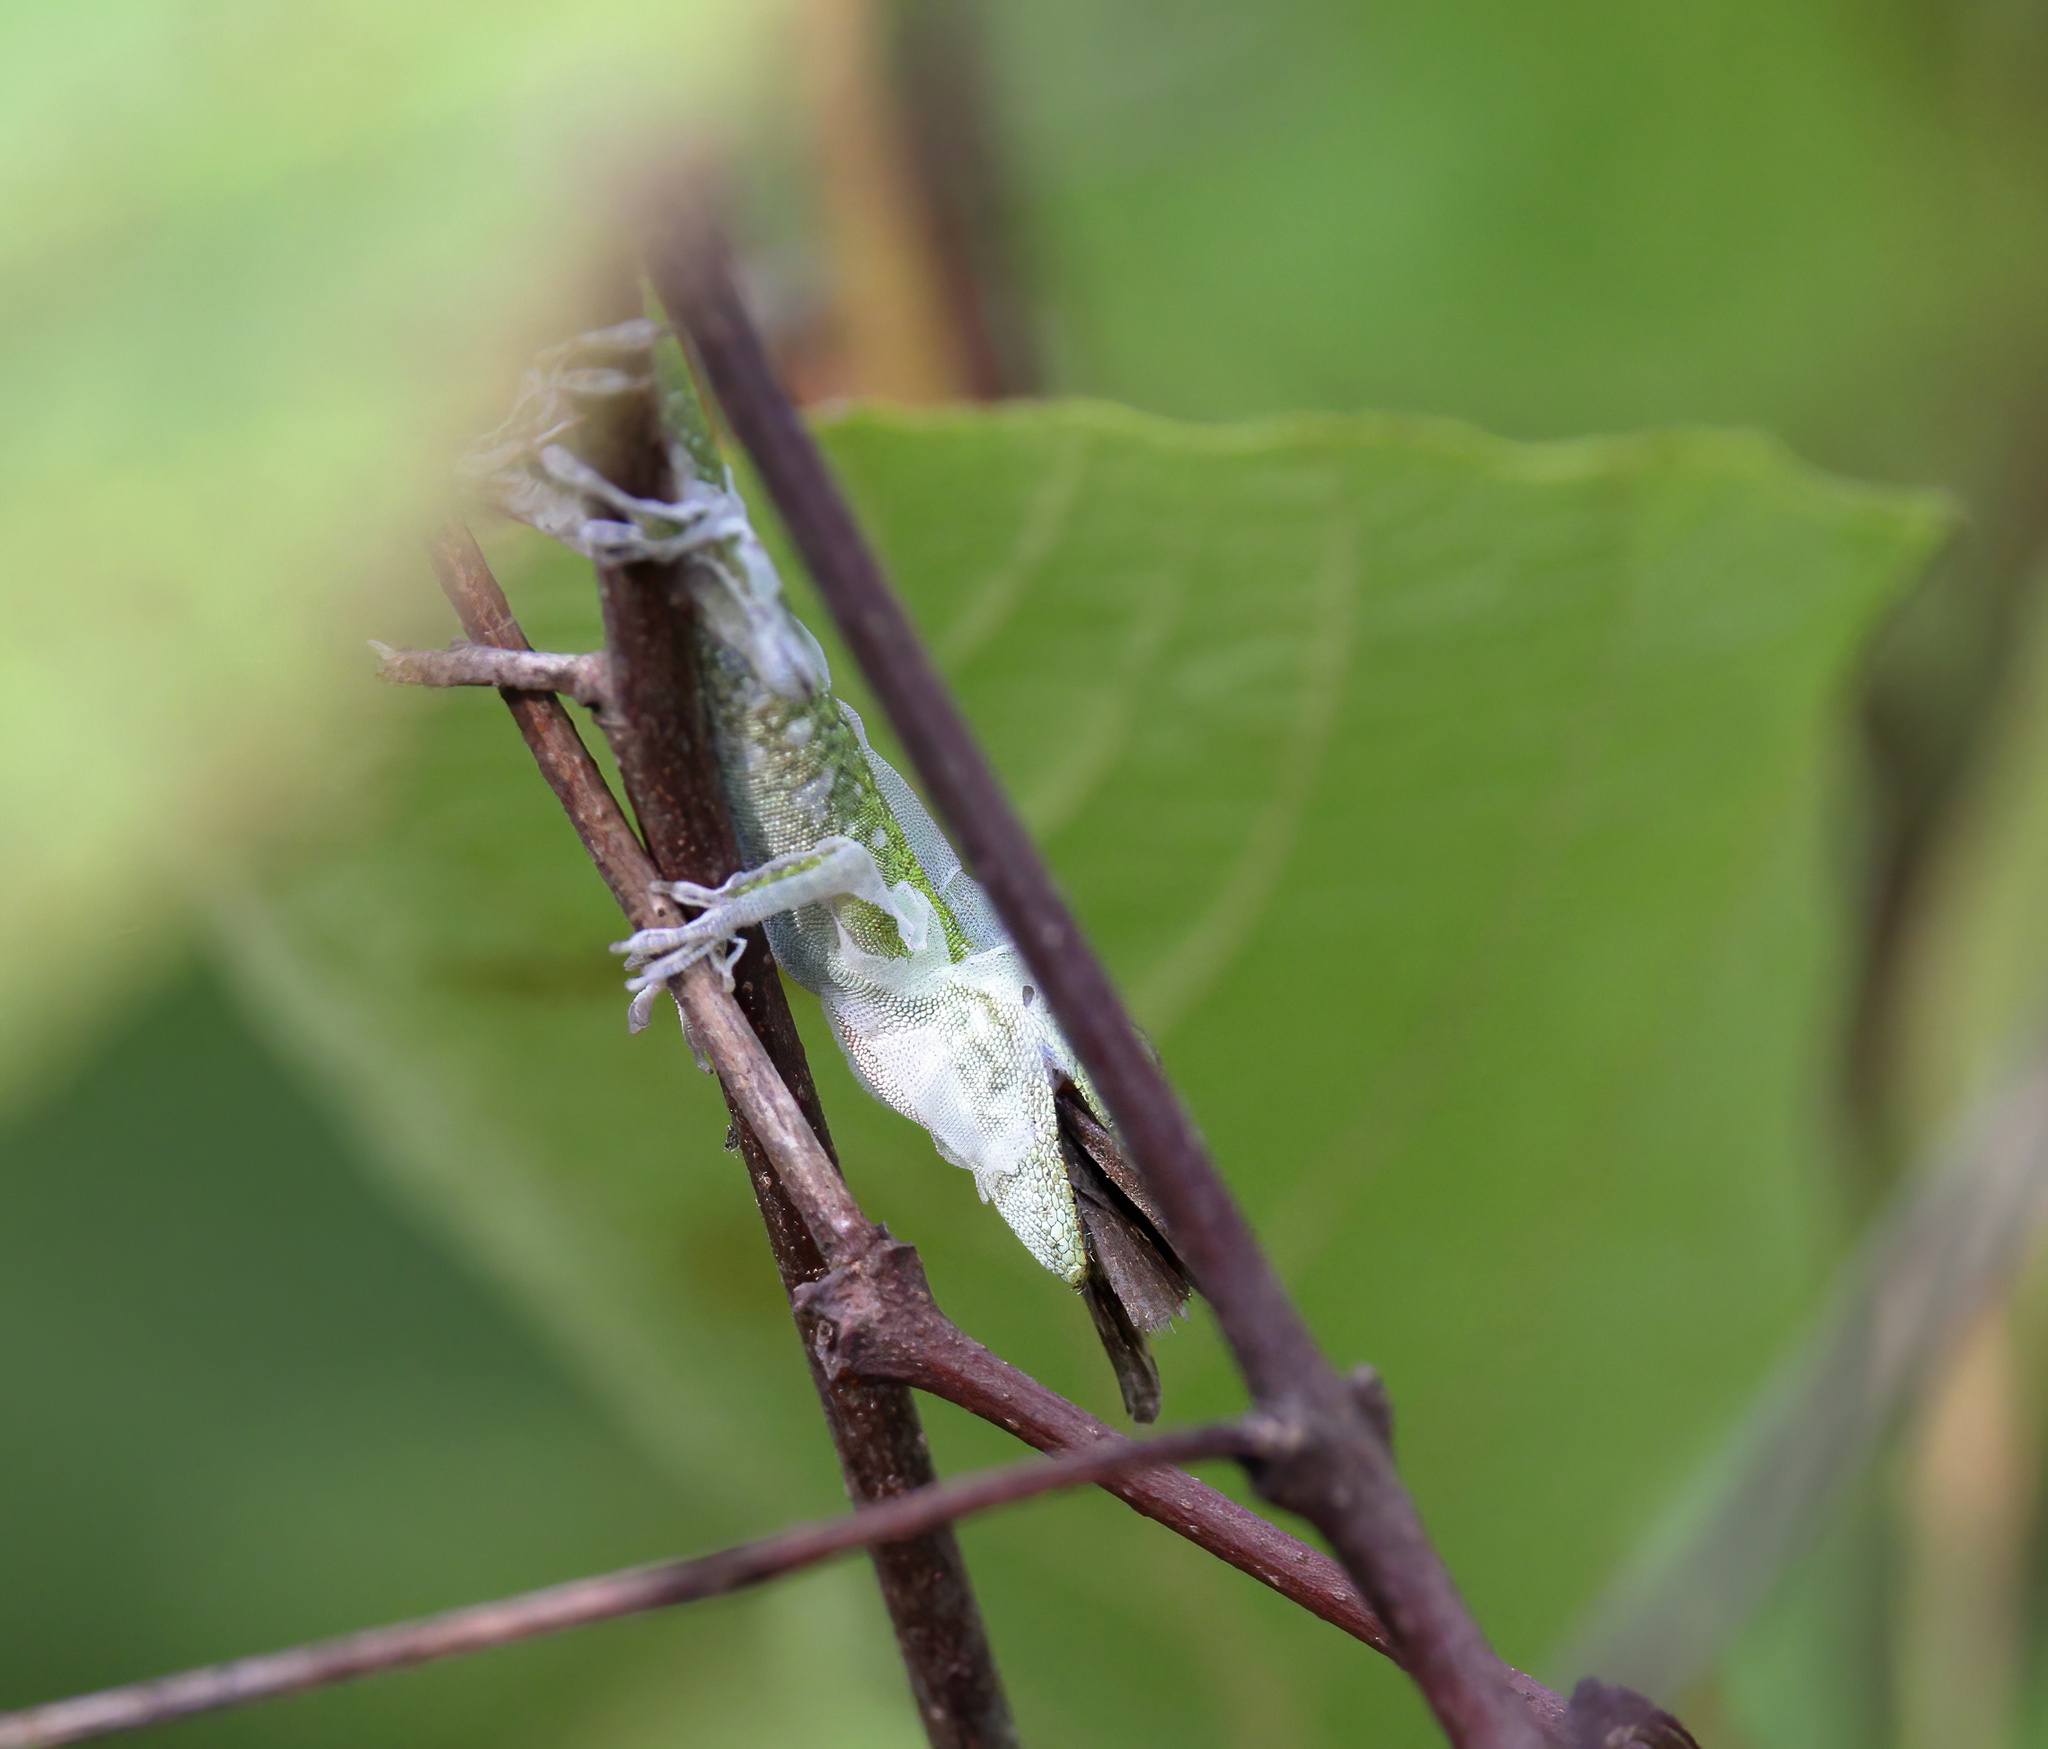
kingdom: Animalia
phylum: Chordata
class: Squamata
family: Dactyloidae
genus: Anolis
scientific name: Anolis carolinensis
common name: Green anole
